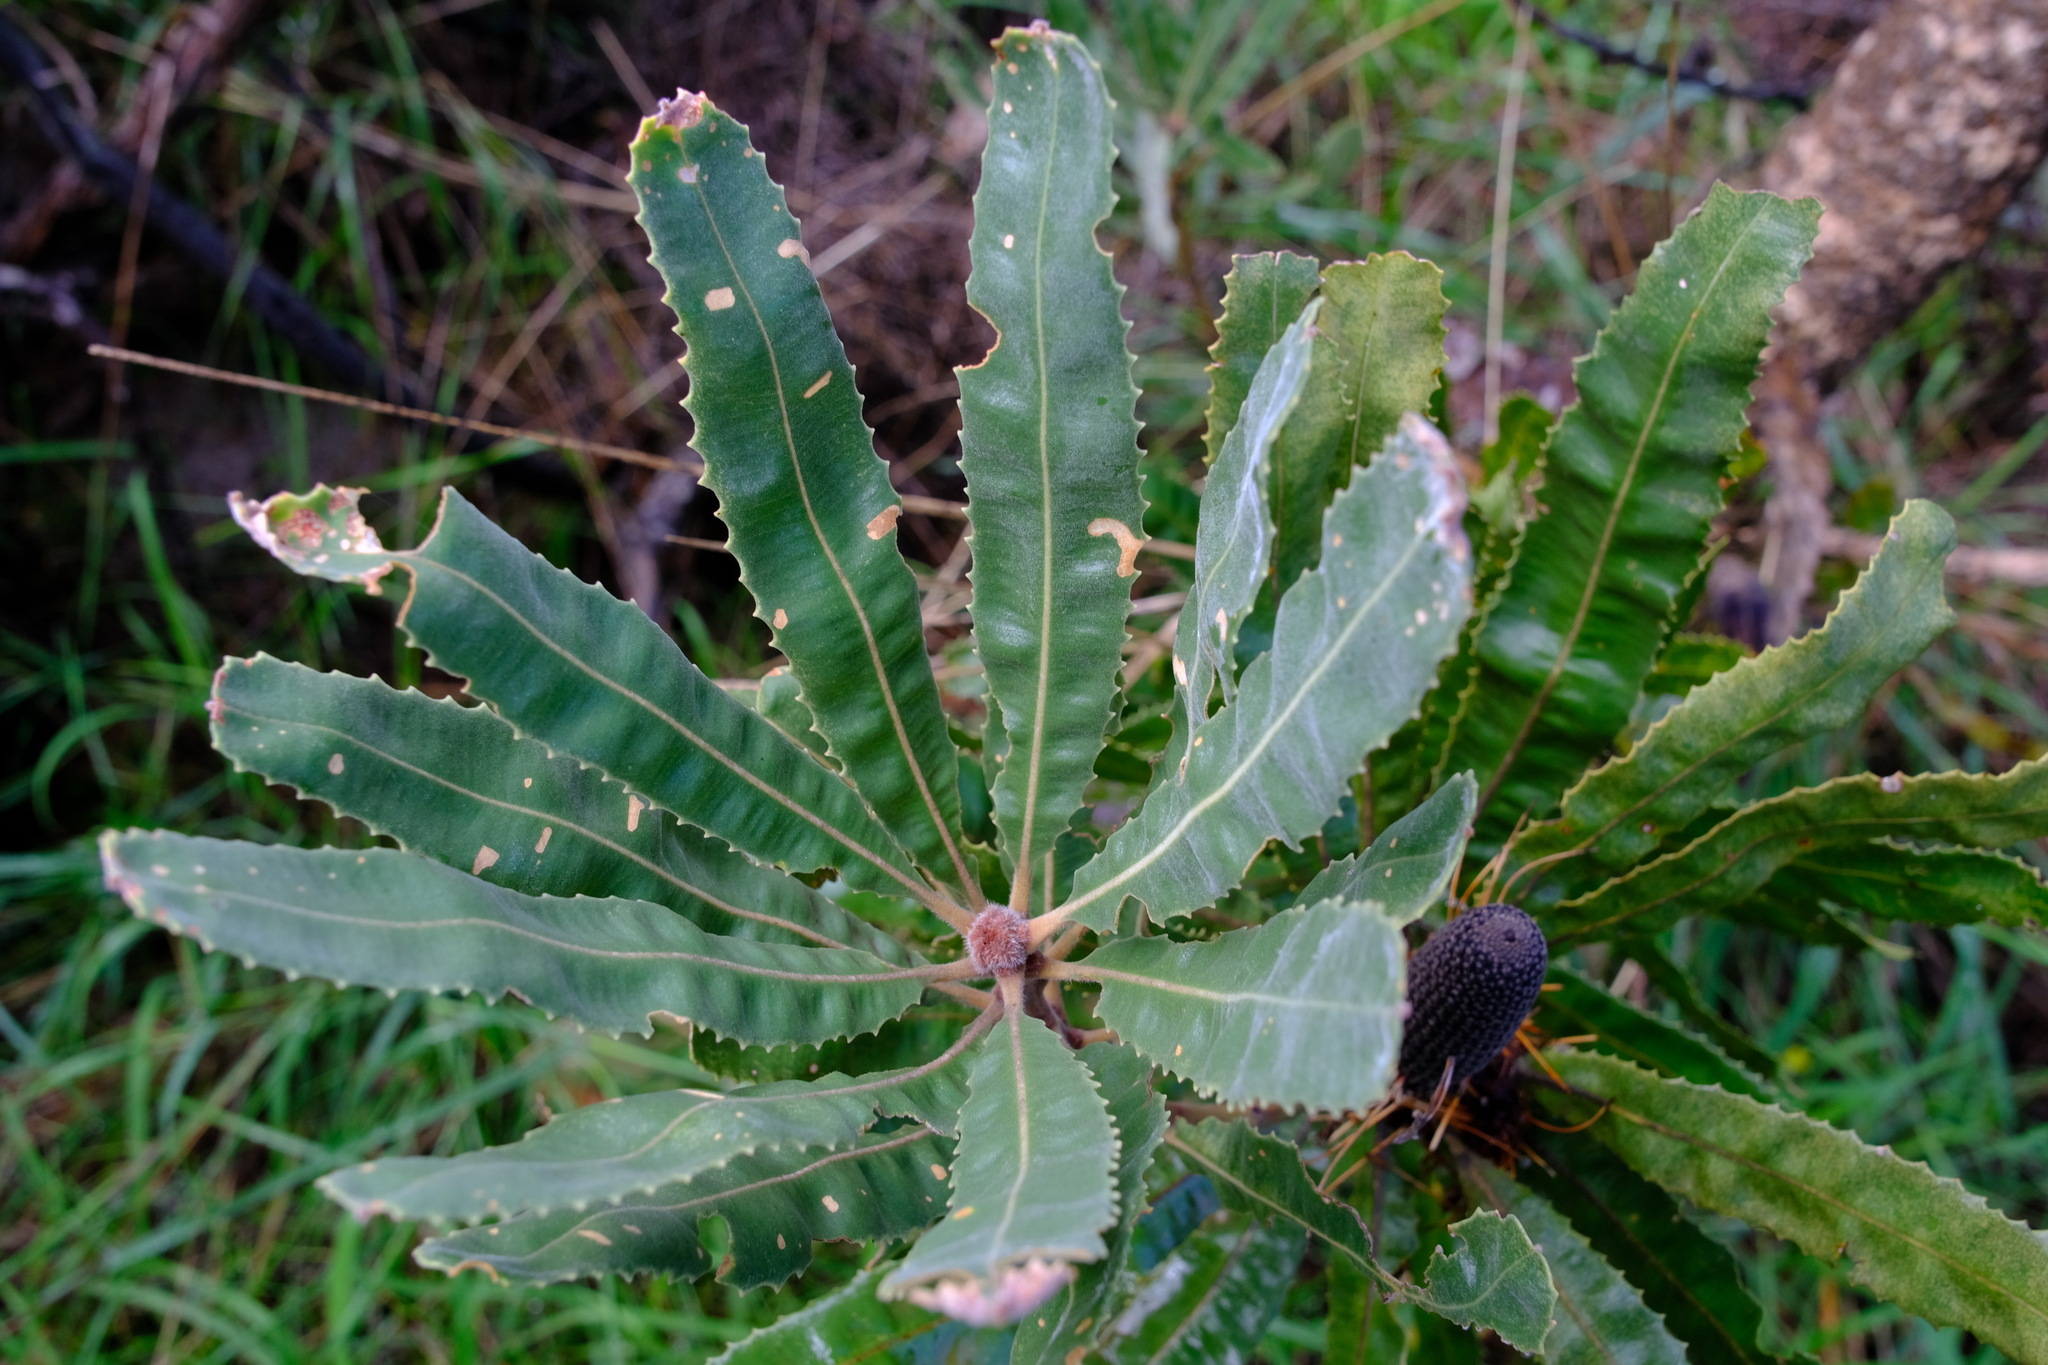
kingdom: Plantae
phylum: Tracheophyta
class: Magnoliopsida
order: Proteales
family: Proteaceae
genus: Banksia
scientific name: Banksia menziesii
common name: Menzie's banksia
